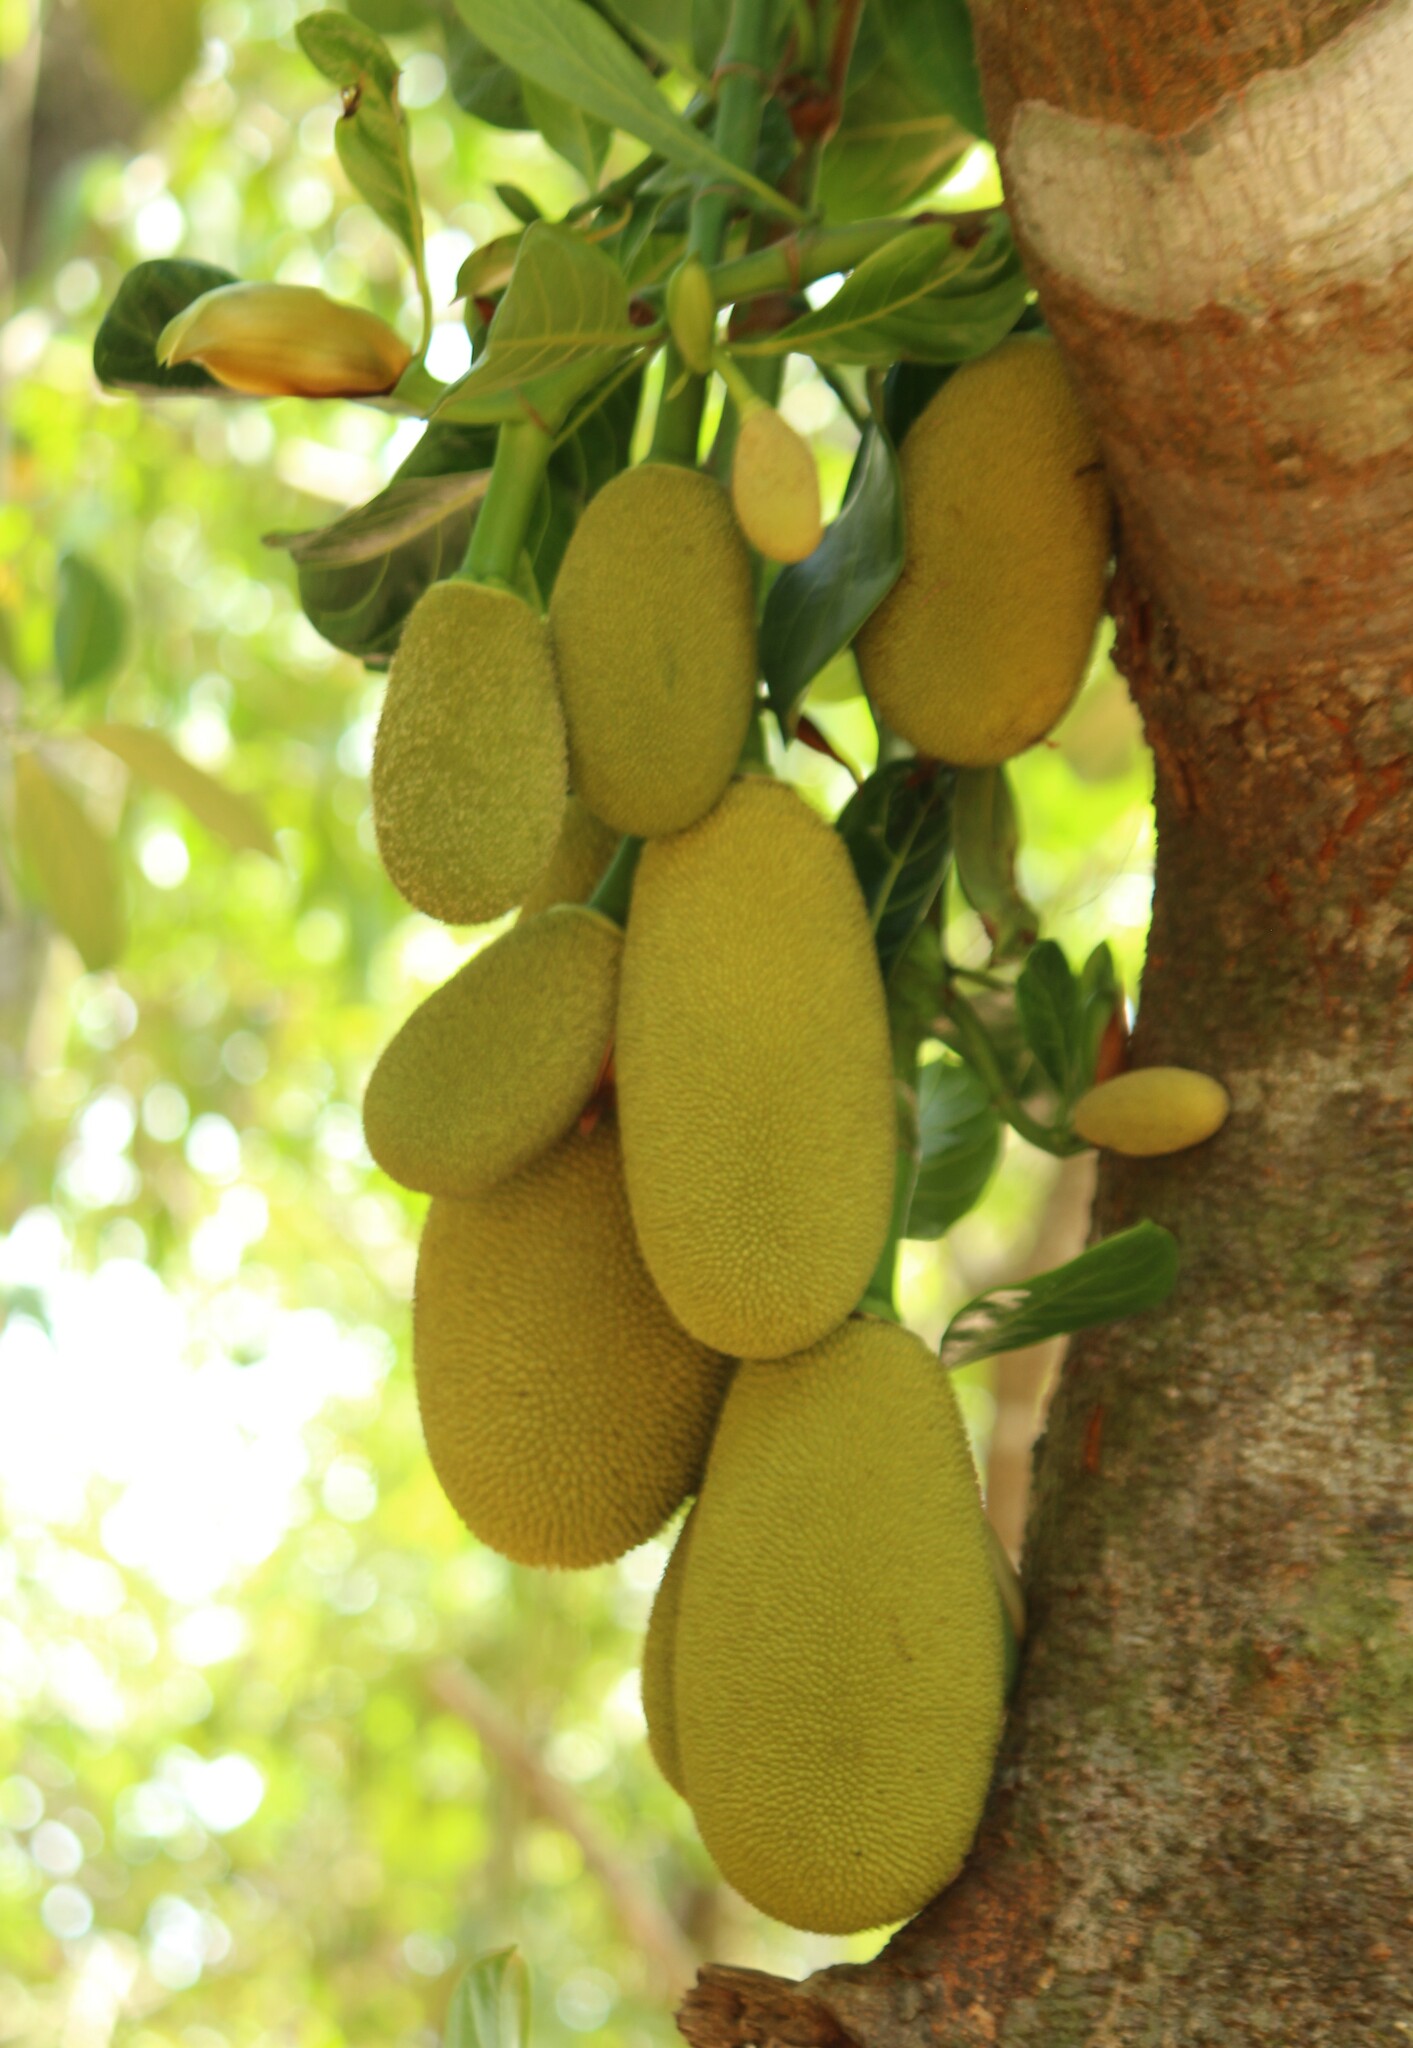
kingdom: Plantae
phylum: Tracheophyta
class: Magnoliopsida
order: Rosales
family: Moraceae
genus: Artocarpus
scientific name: Artocarpus heterophyllus
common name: Jackfruit
